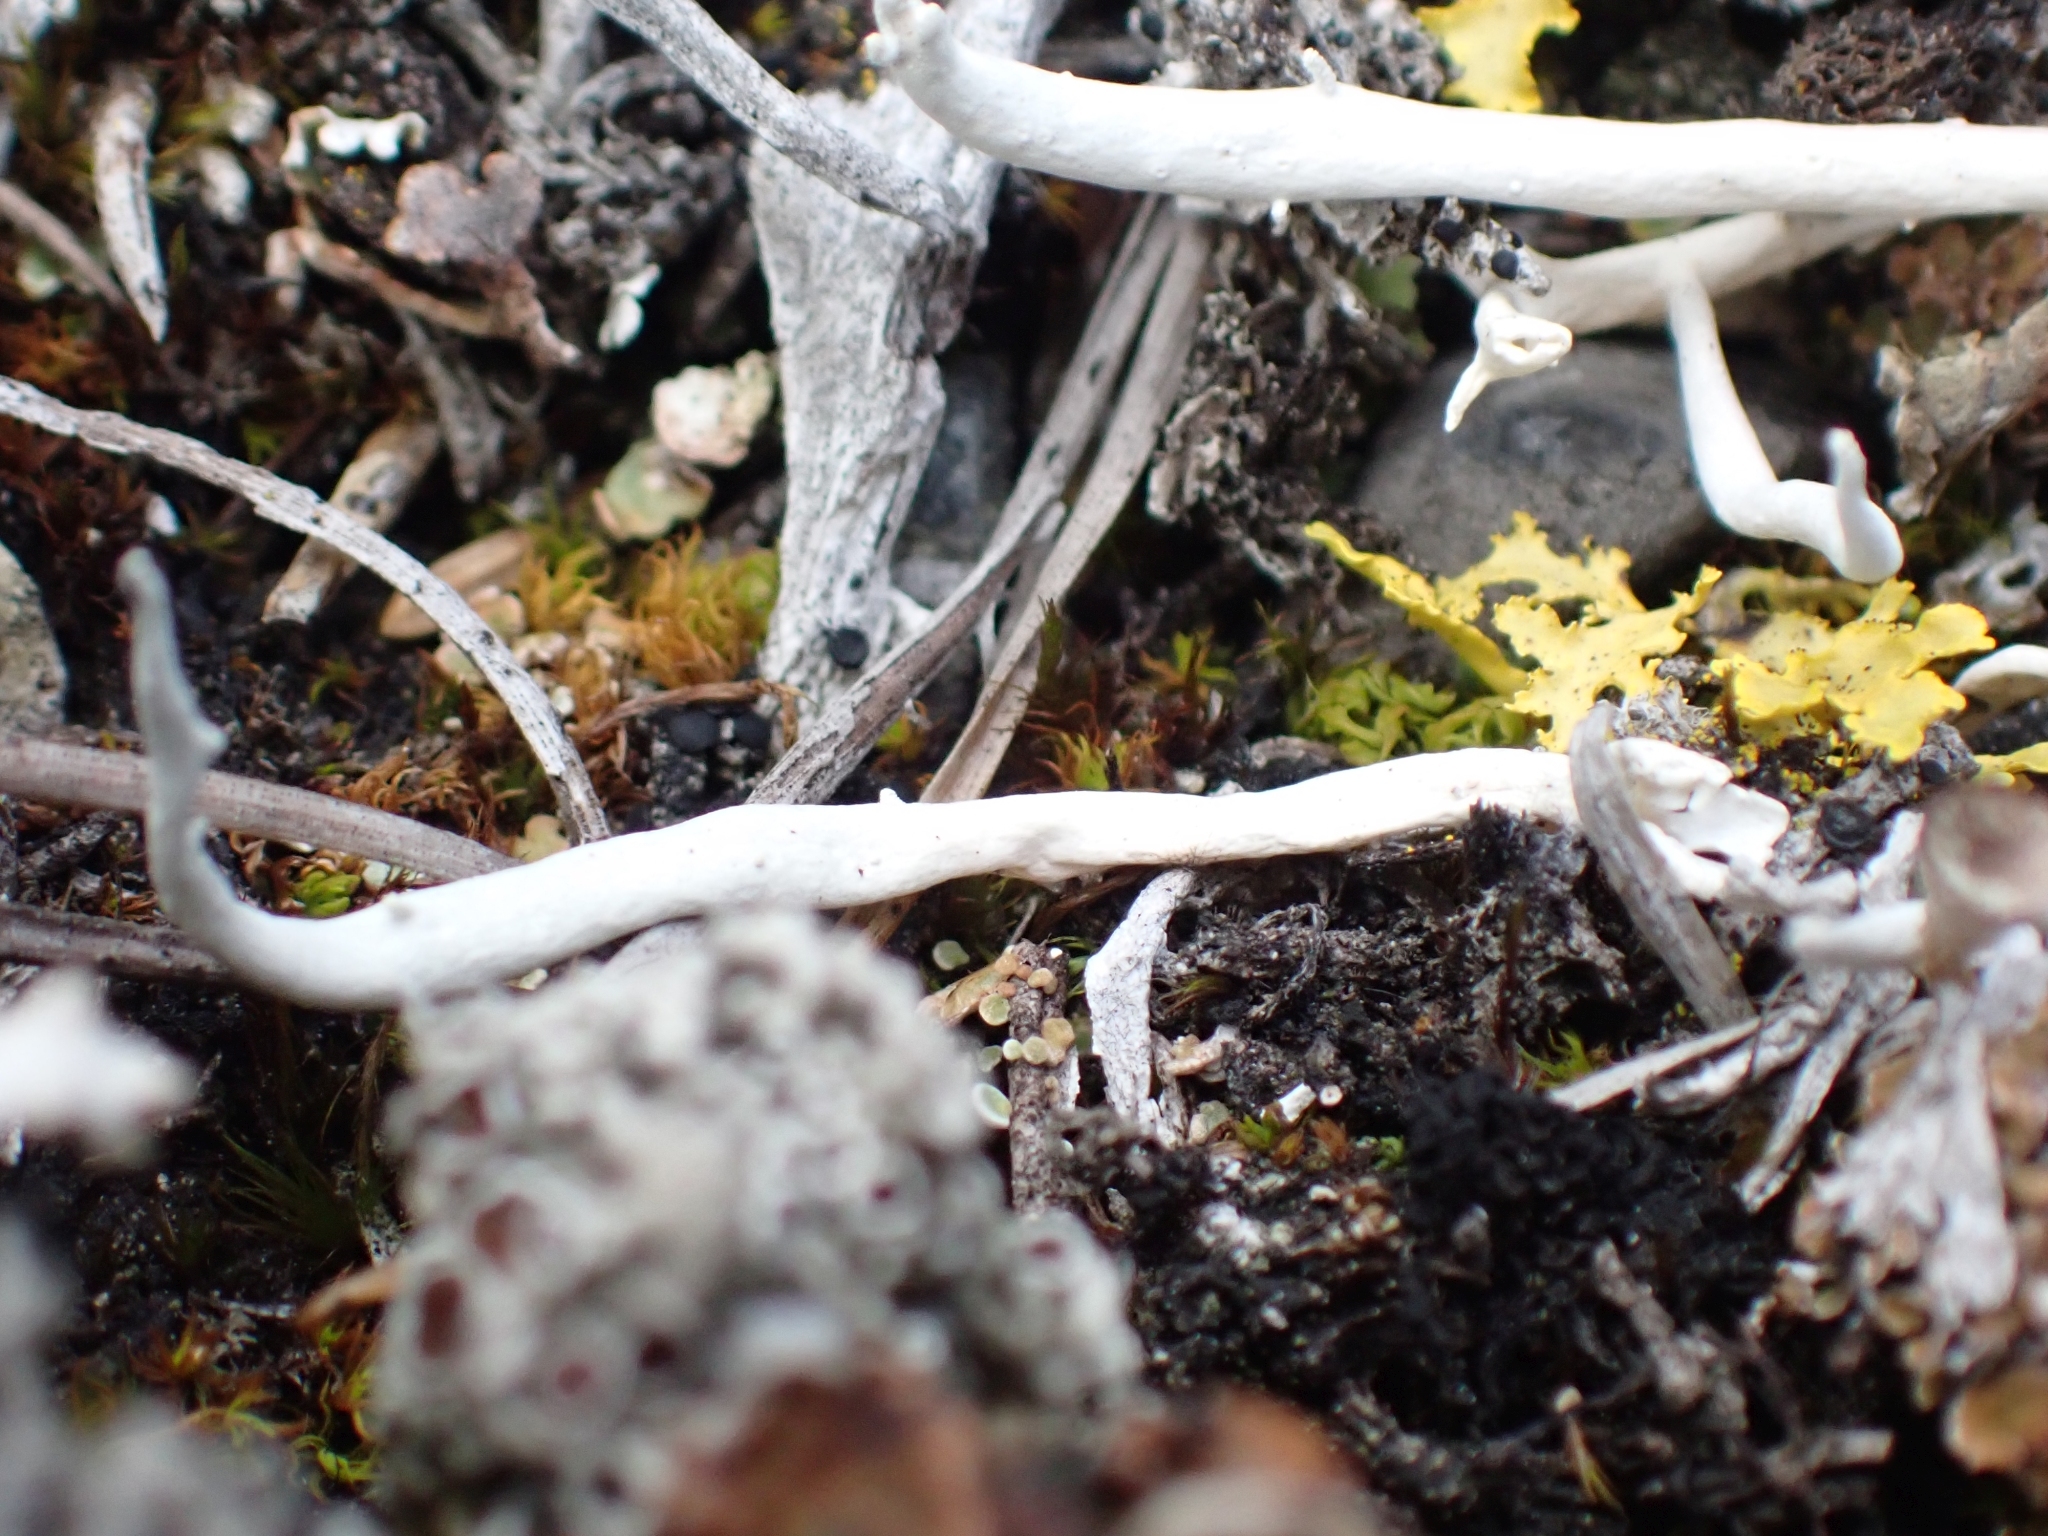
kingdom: Fungi
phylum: Ascomycota
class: Lecanoromycetes
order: Pertusariales
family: Icmadophilaceae
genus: Thamnolia
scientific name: Thamnolia vermicularis
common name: Whiteworm lichen
